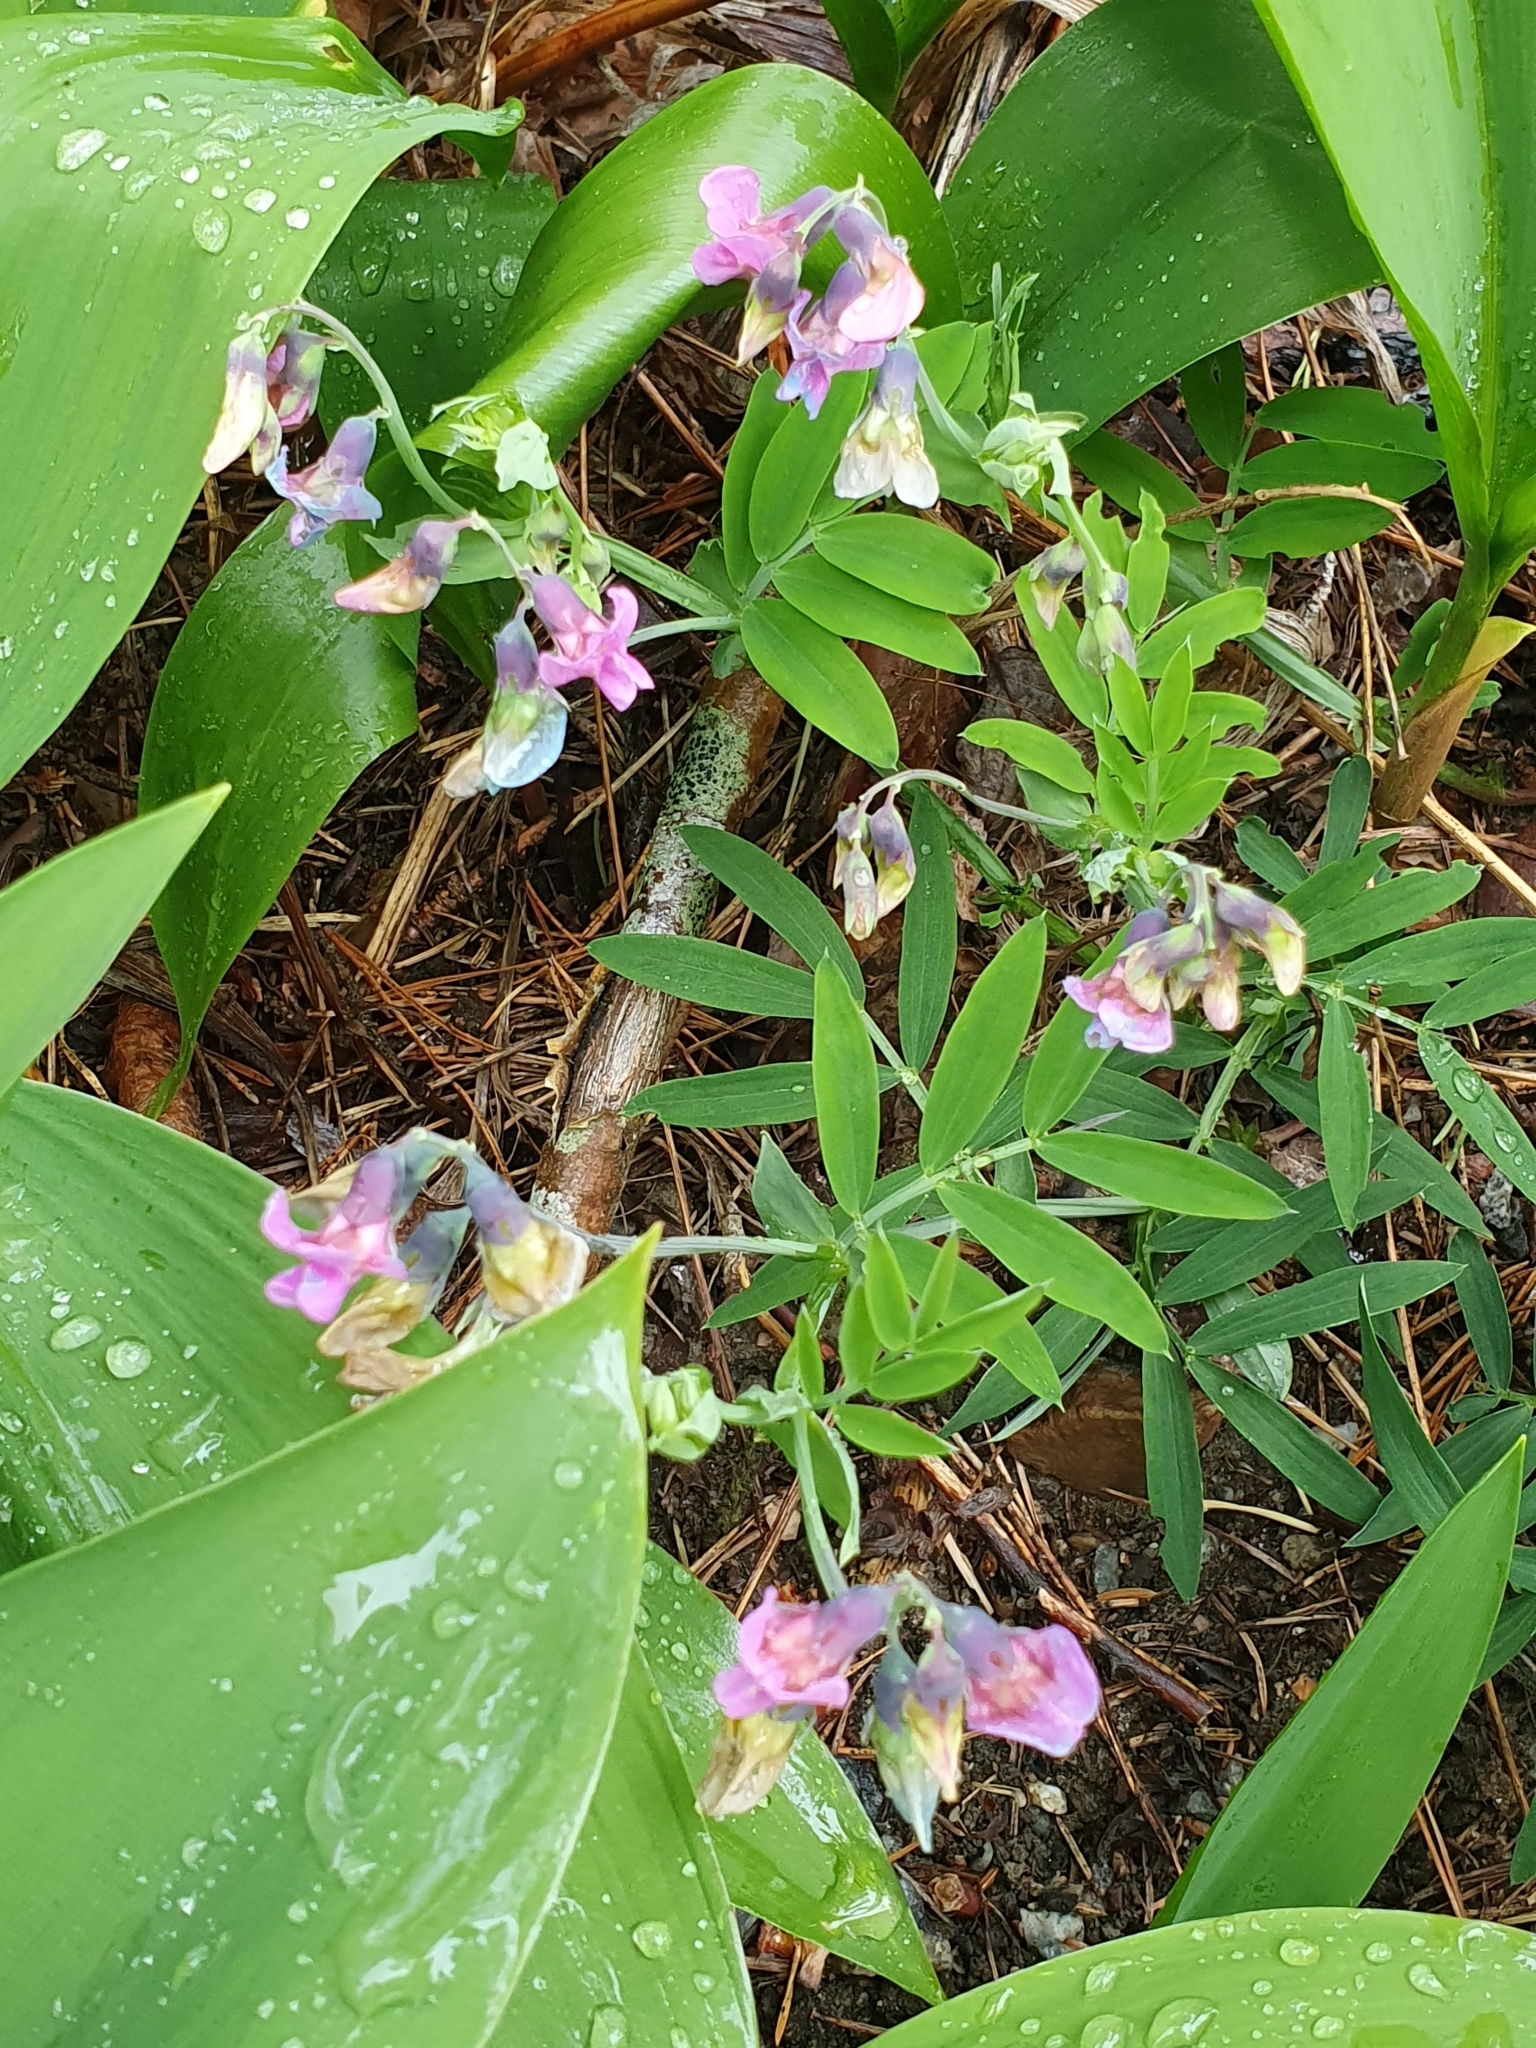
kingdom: Plantae
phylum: Tracheophyta
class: Magnoliopsida
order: Fabales
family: Fabaceae
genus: Lathyrus
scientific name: Lathyrus linifolius
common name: Bitter-vetch
